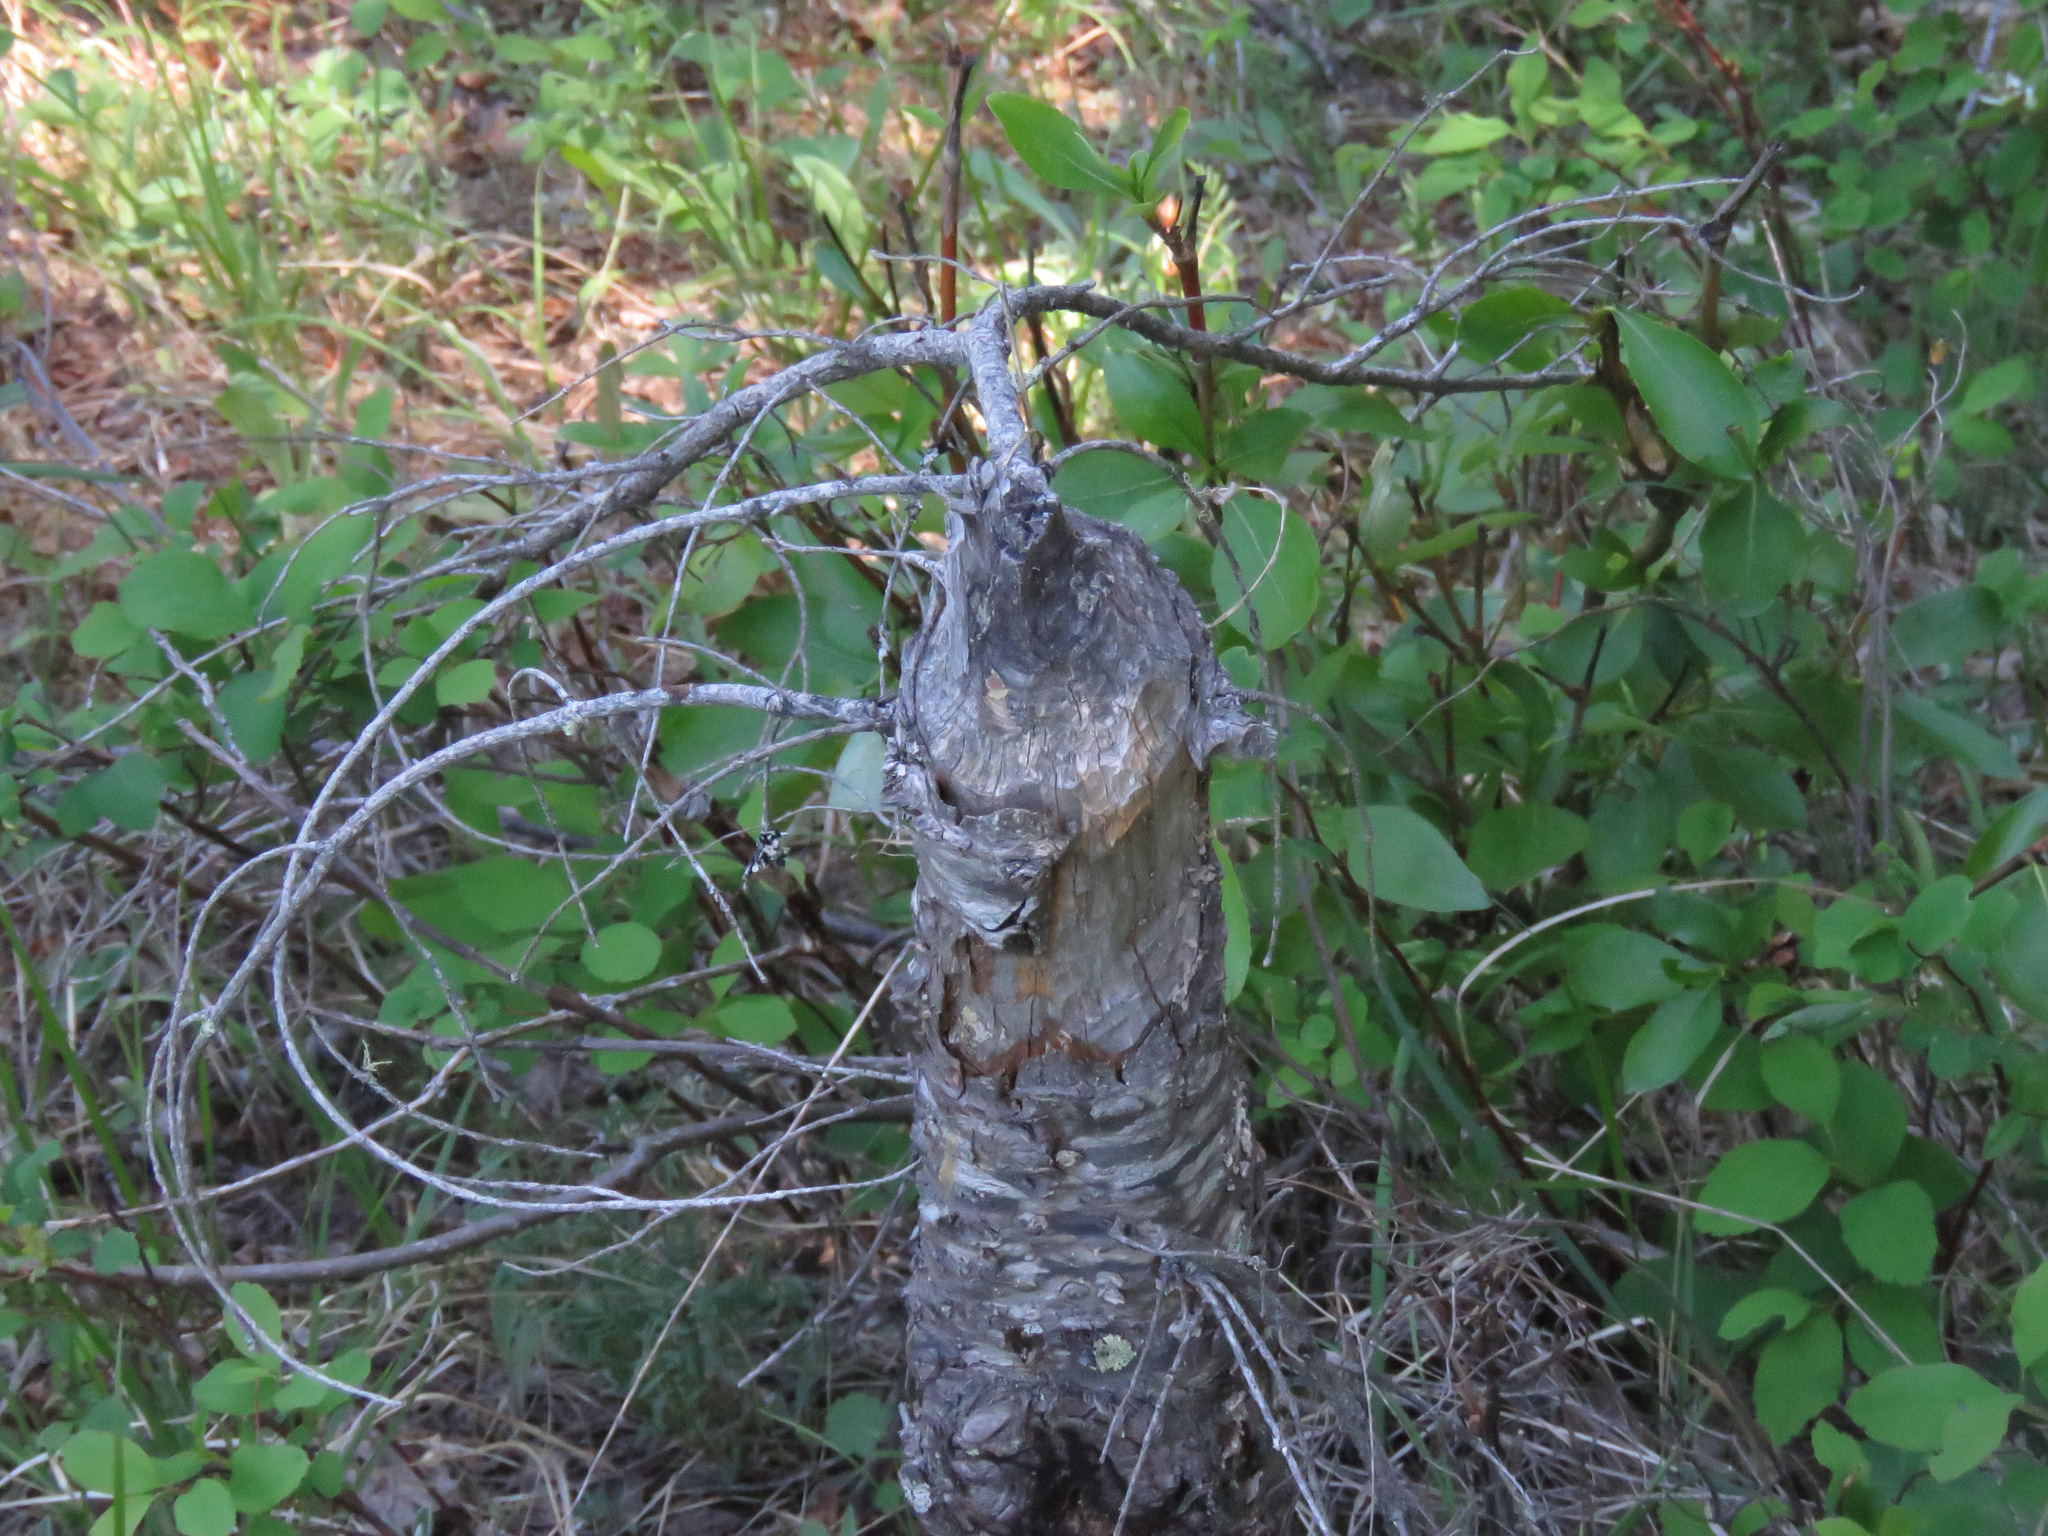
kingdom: Animalia
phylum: Chordata
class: Mammalia
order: Rodentia
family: Castoridae
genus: Castor
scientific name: Castor canadensis
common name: American beaver
